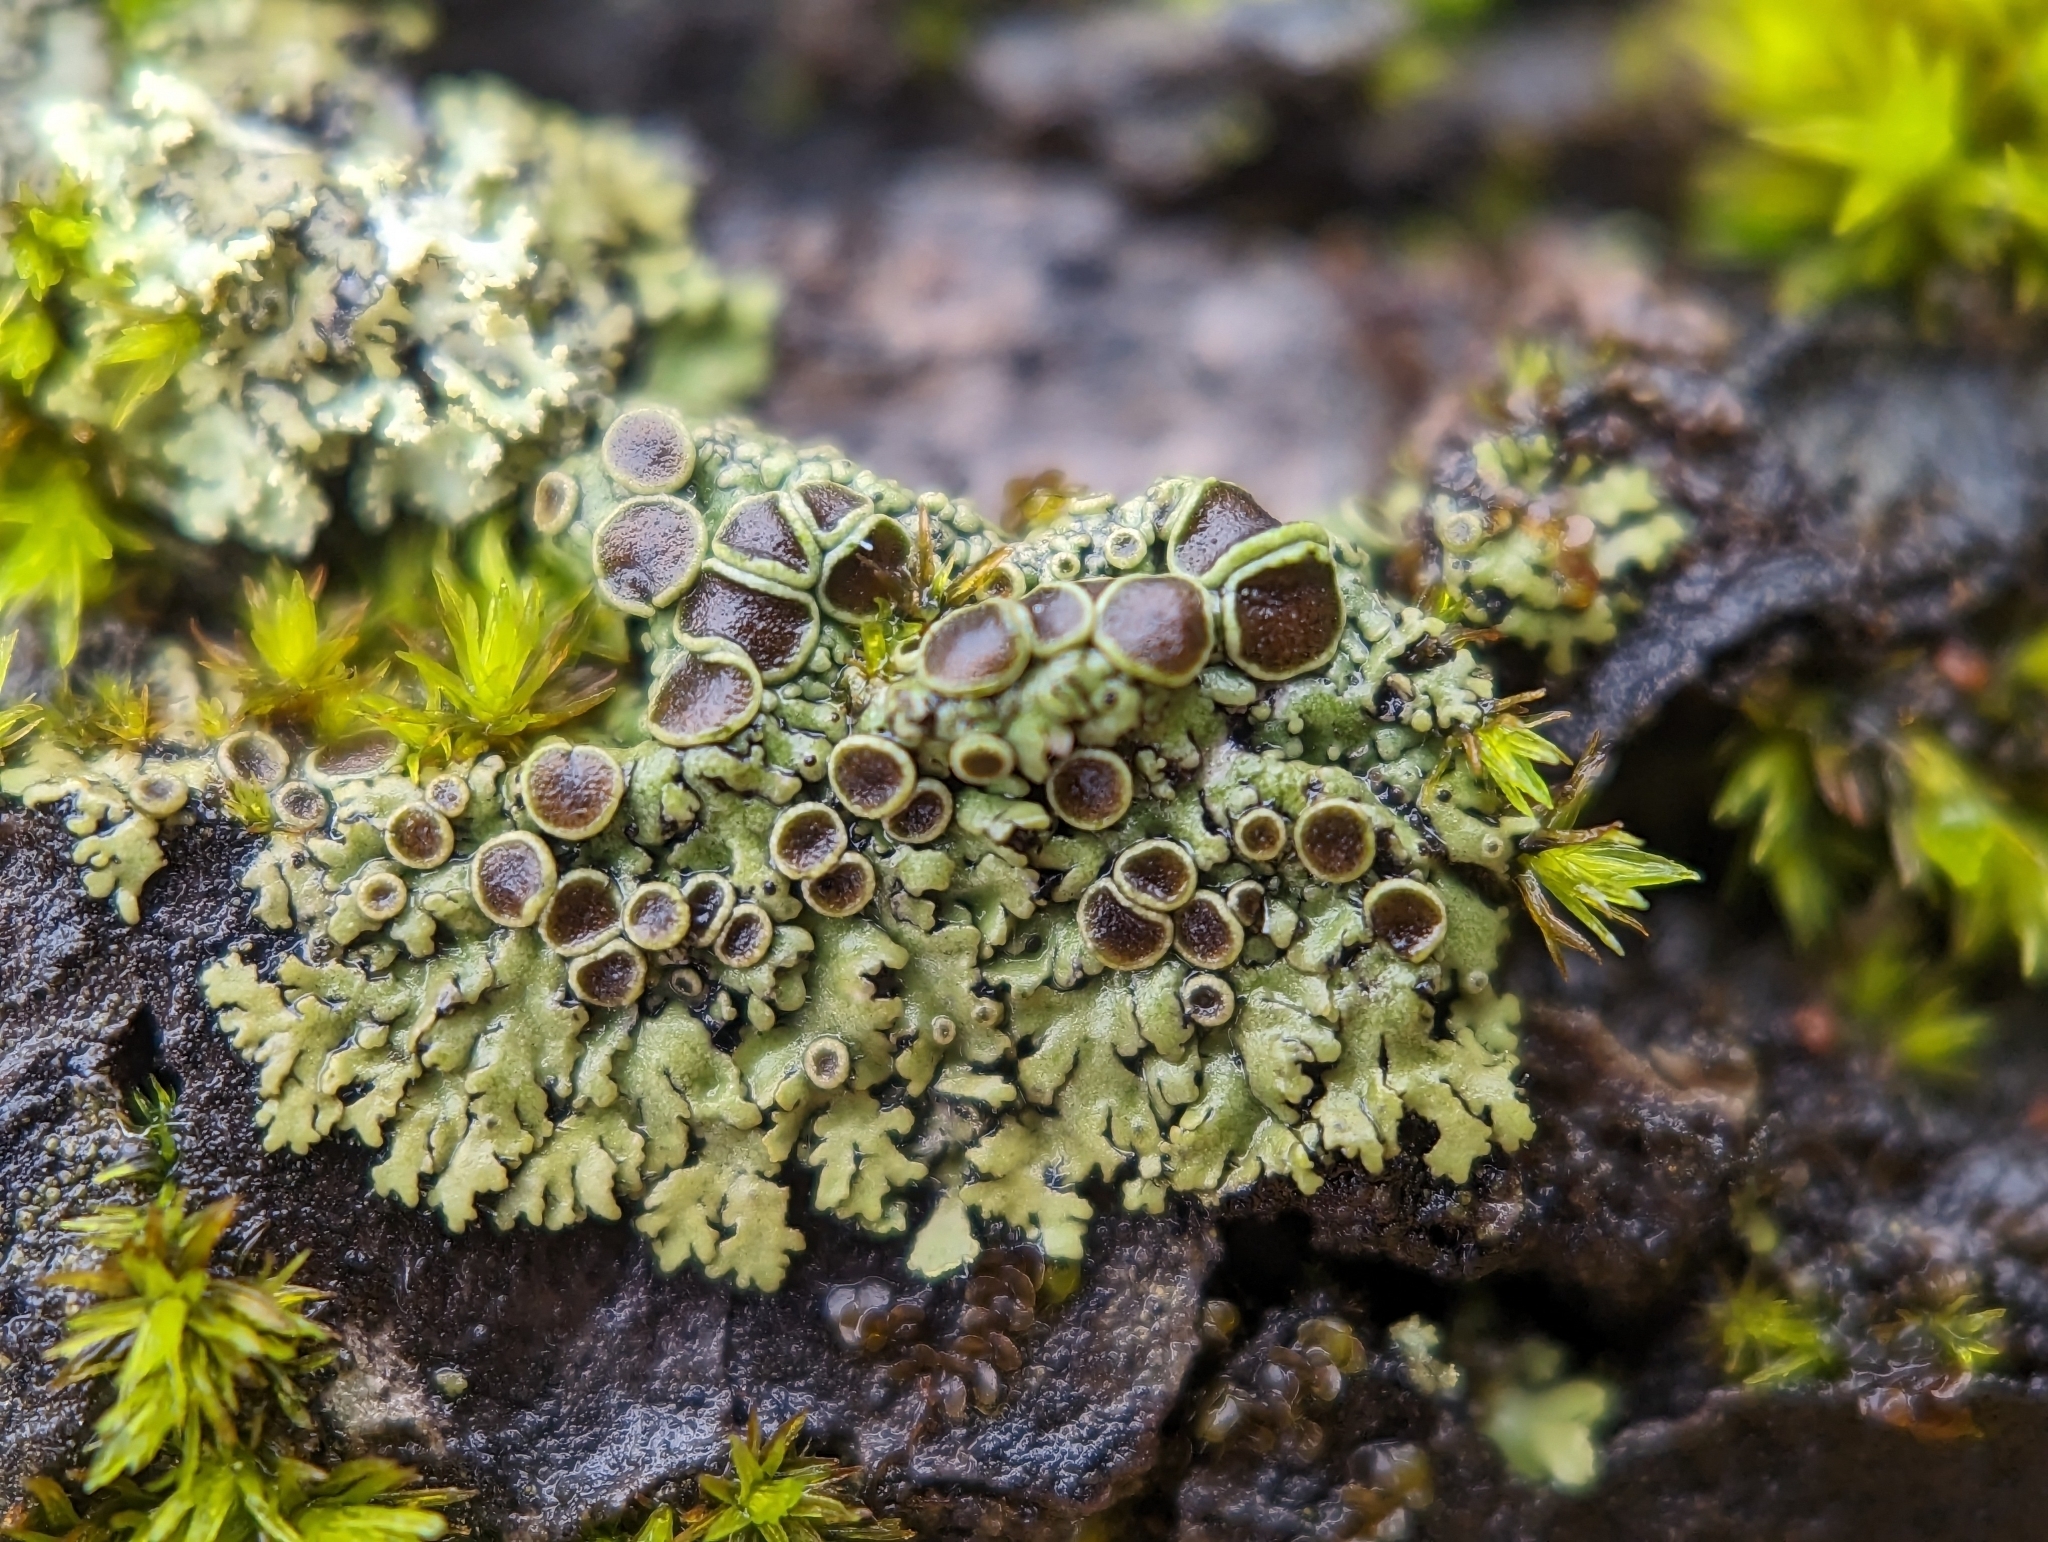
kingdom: Fungi
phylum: Ascomycota
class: Lecanoromycetes
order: Caliciales
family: Physciaceae
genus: Physcia
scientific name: Physcia pumilior
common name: Lesser gray legs
